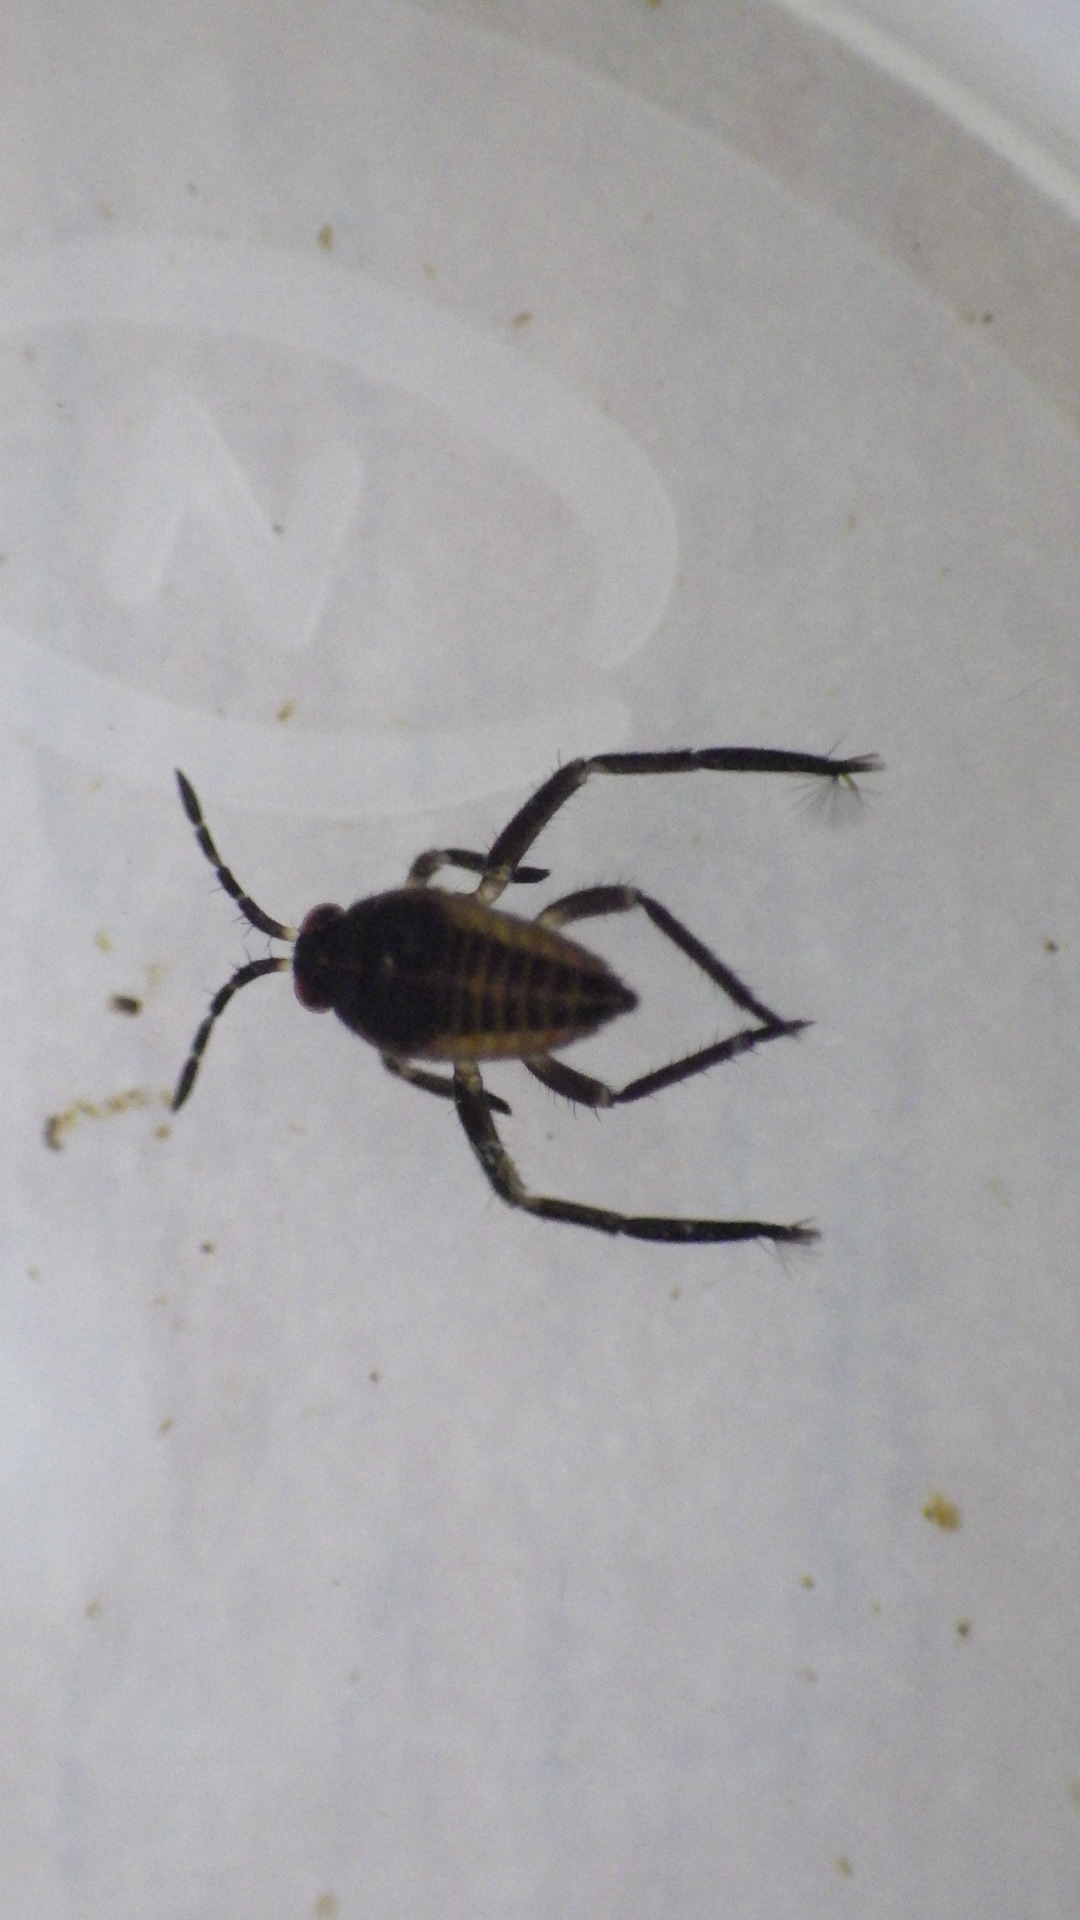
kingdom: Animalia
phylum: Arthropoda
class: Insecta
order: Hemiptera
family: Veliidae
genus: Rhagovelia
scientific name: Rhagovelia obesa
